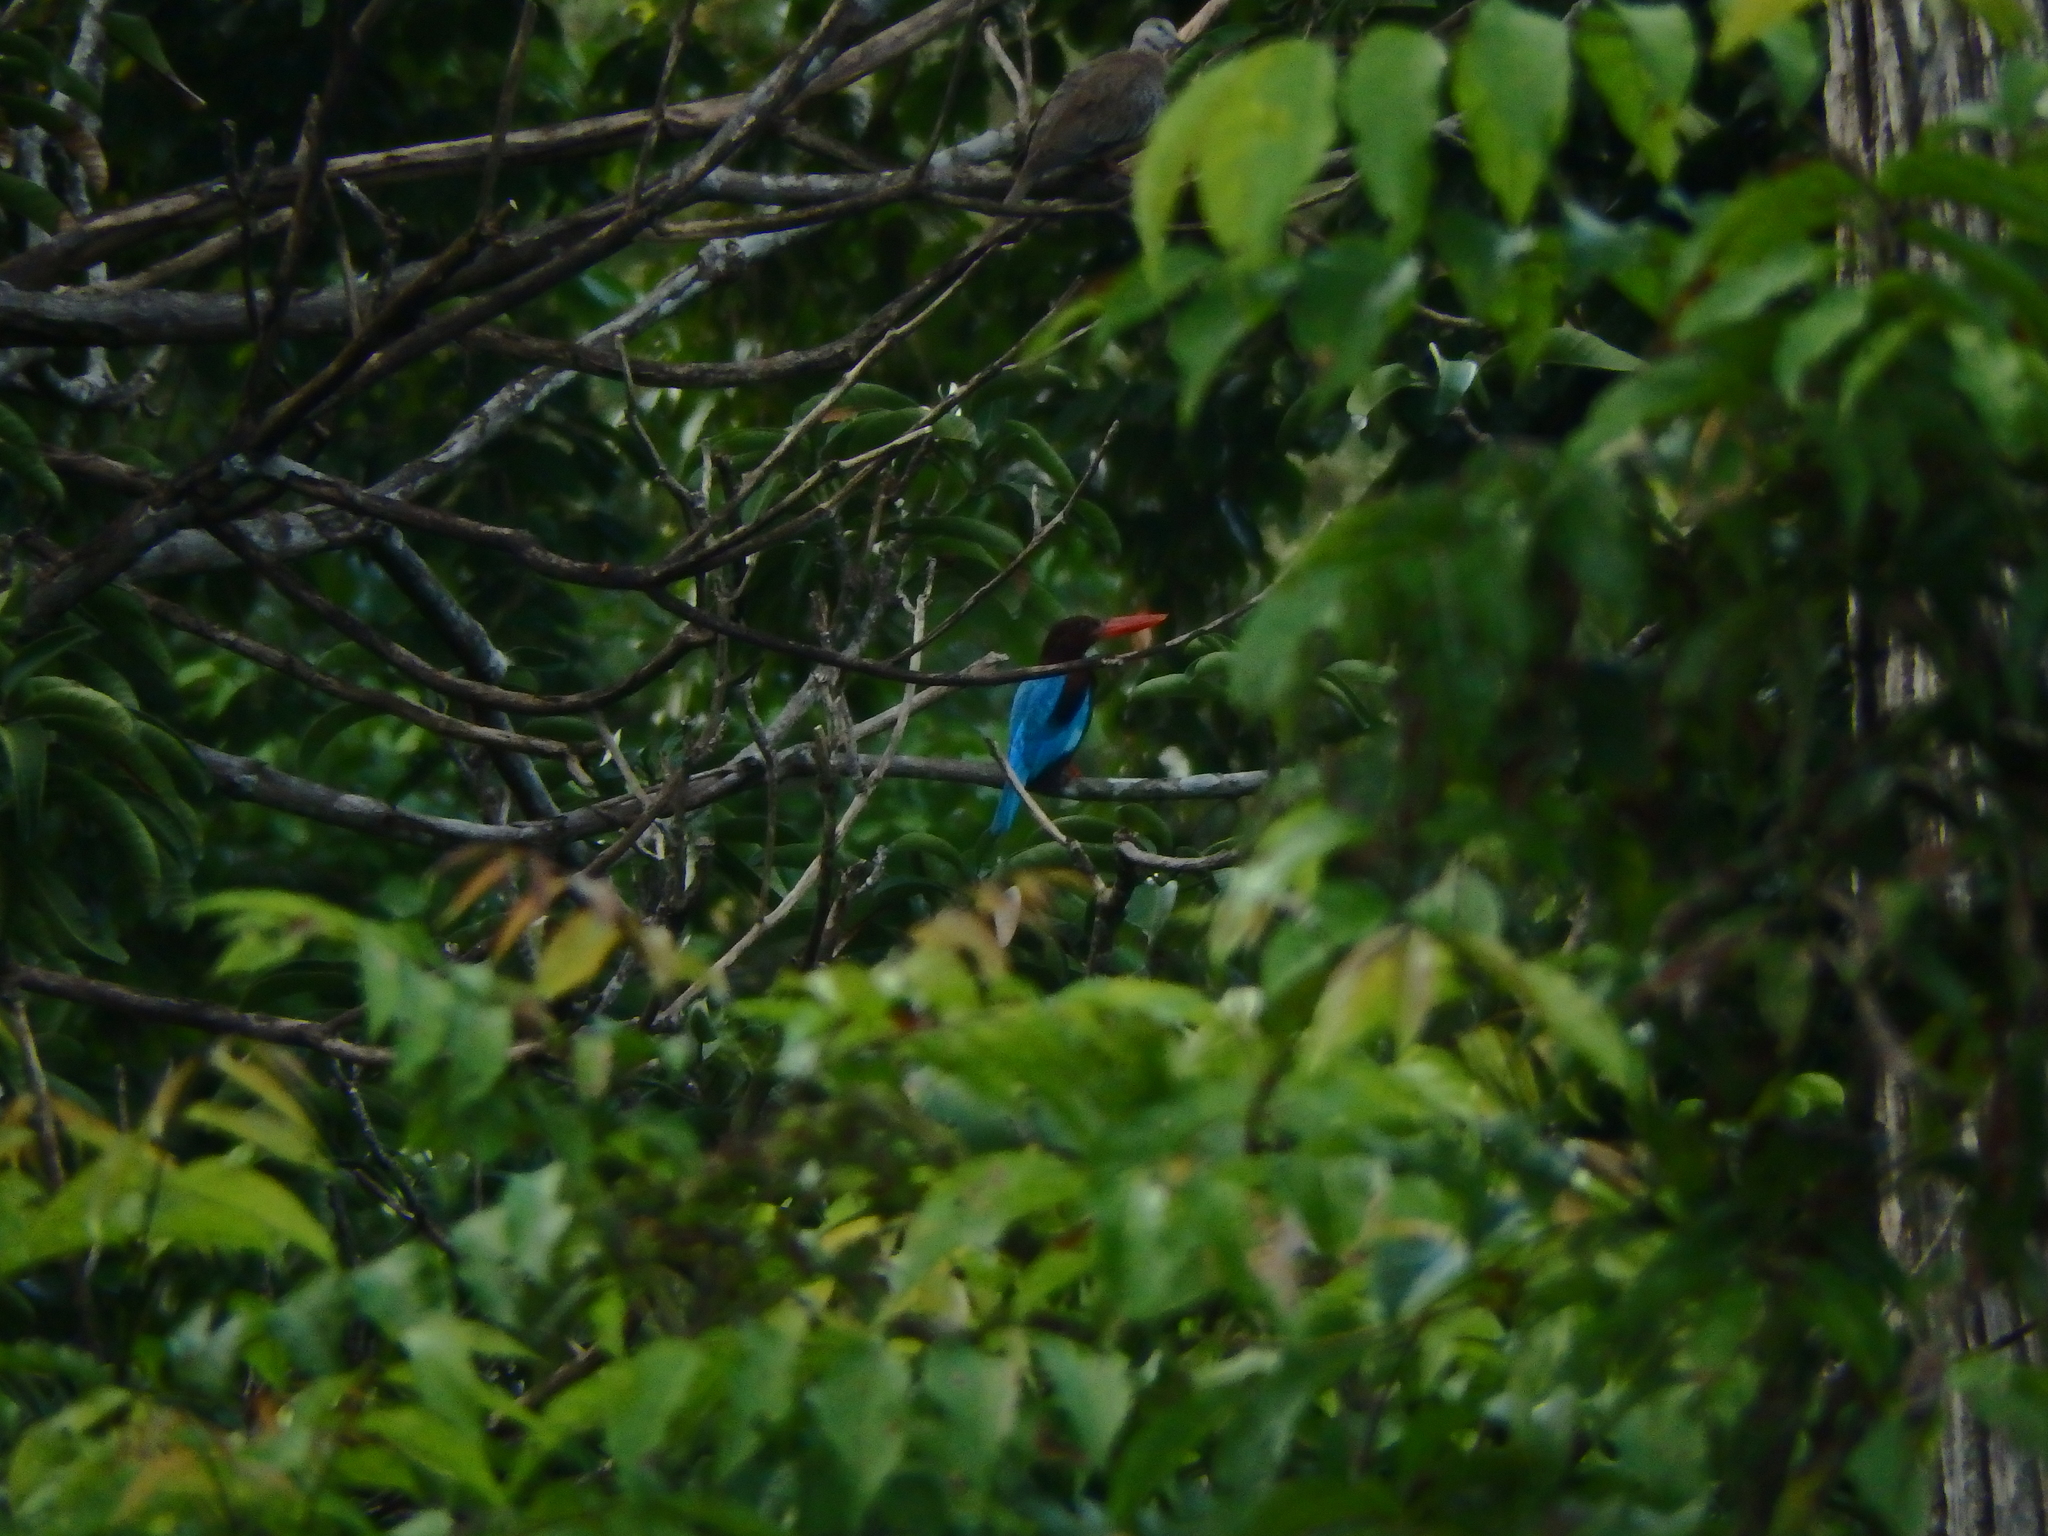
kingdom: Animalia
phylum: Chordata
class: Aves
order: Coraciiformes
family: Alcedinidae
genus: Halcyon
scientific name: Halcyon smyrnensis
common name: White-throated kingfisher
